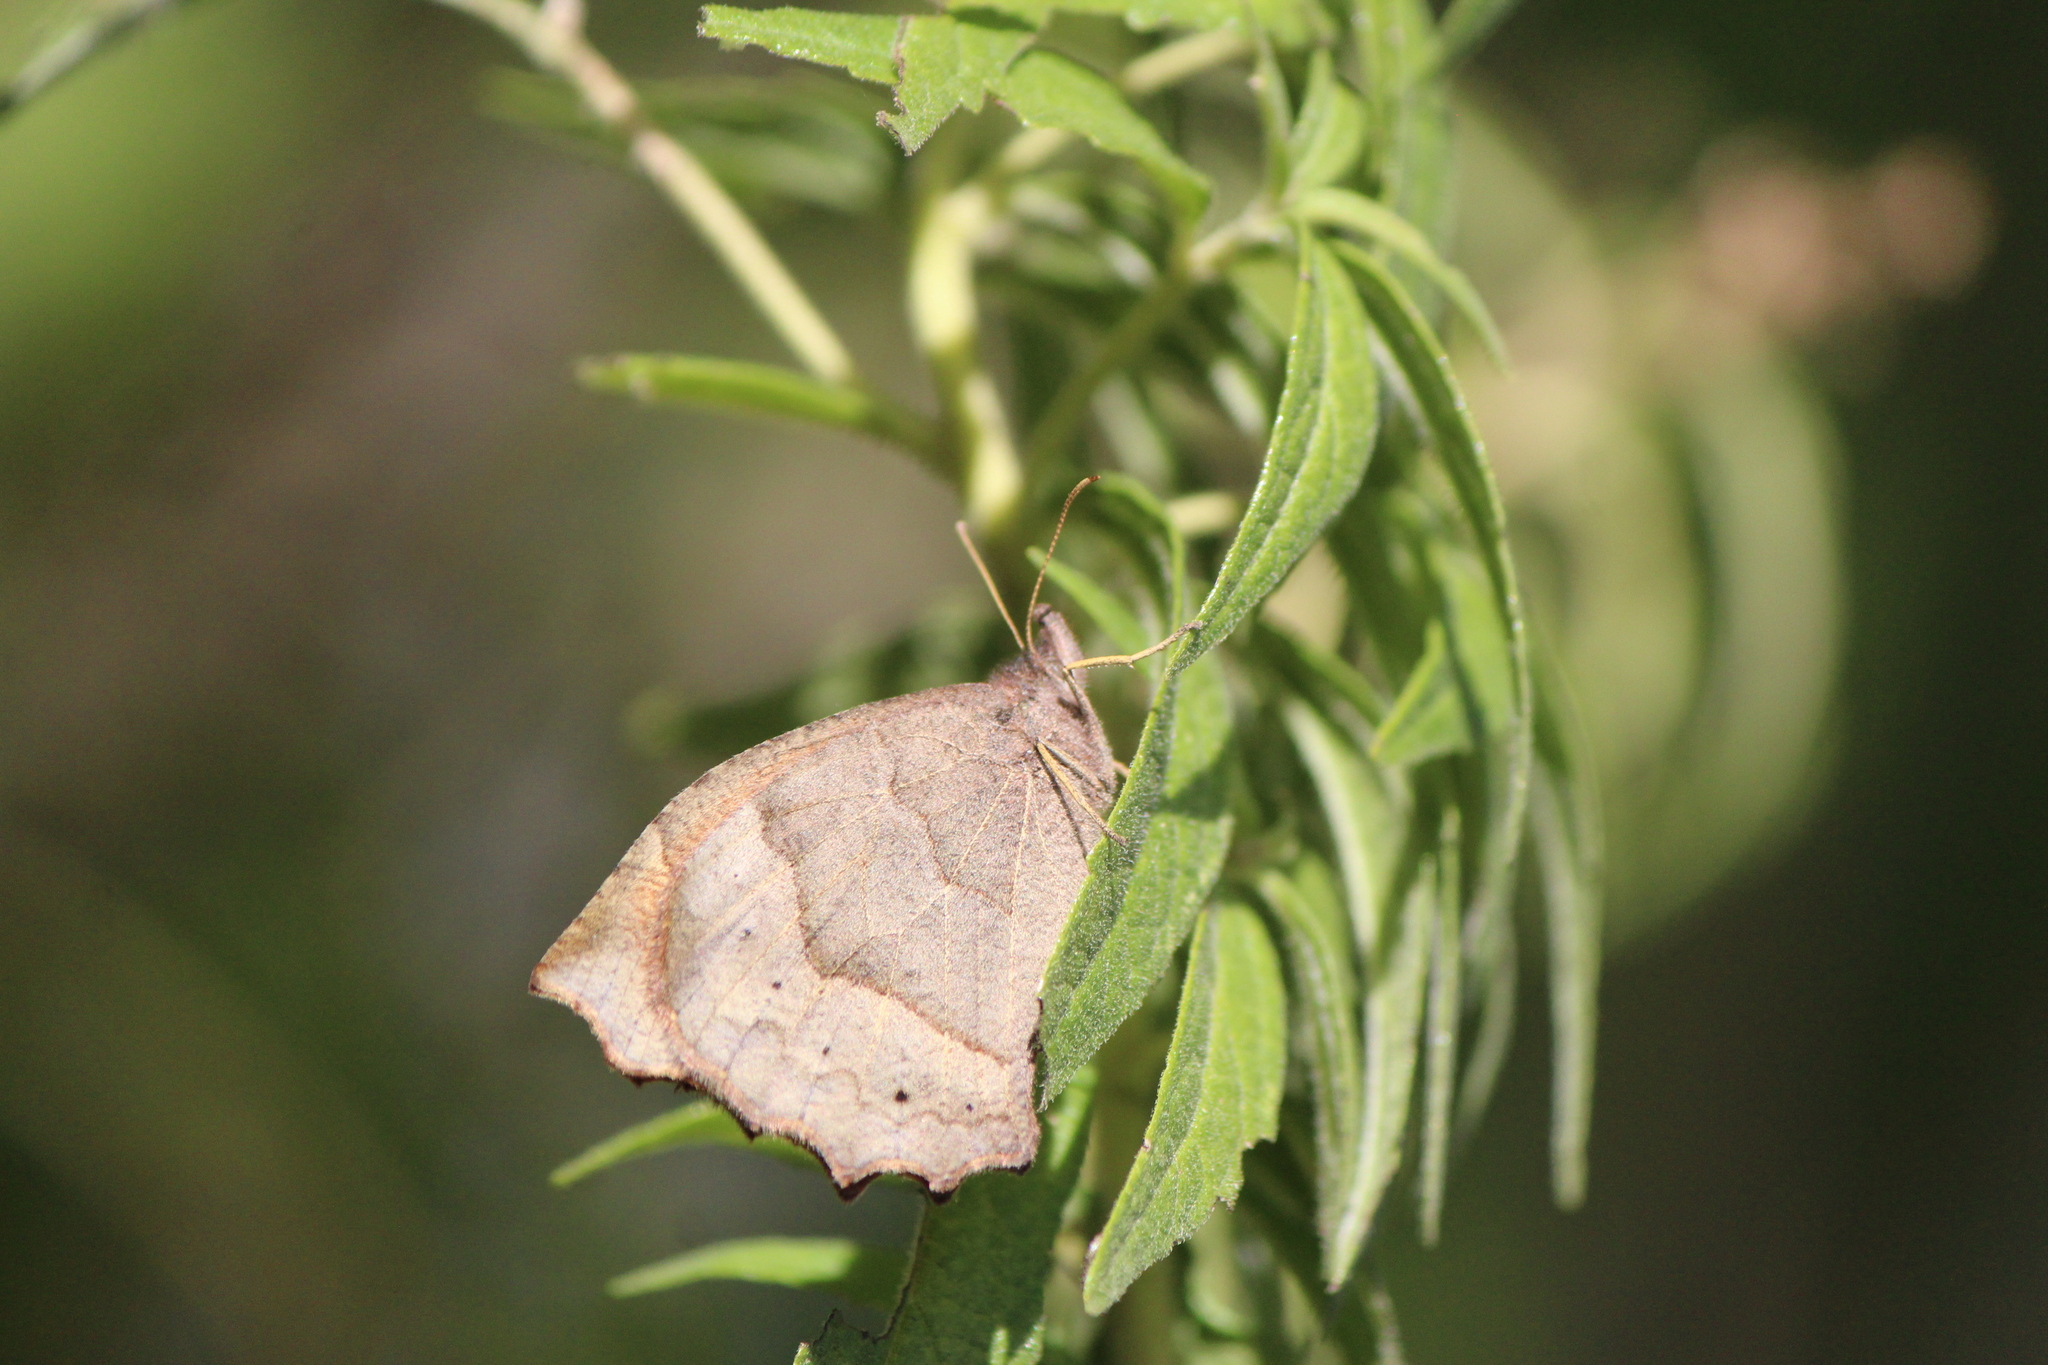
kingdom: Animalia
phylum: Arthropoda
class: Insecta
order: Lepidoptera
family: Nymphalidae
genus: Pindis
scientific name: Pindis squamistriga
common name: Variable satyr
